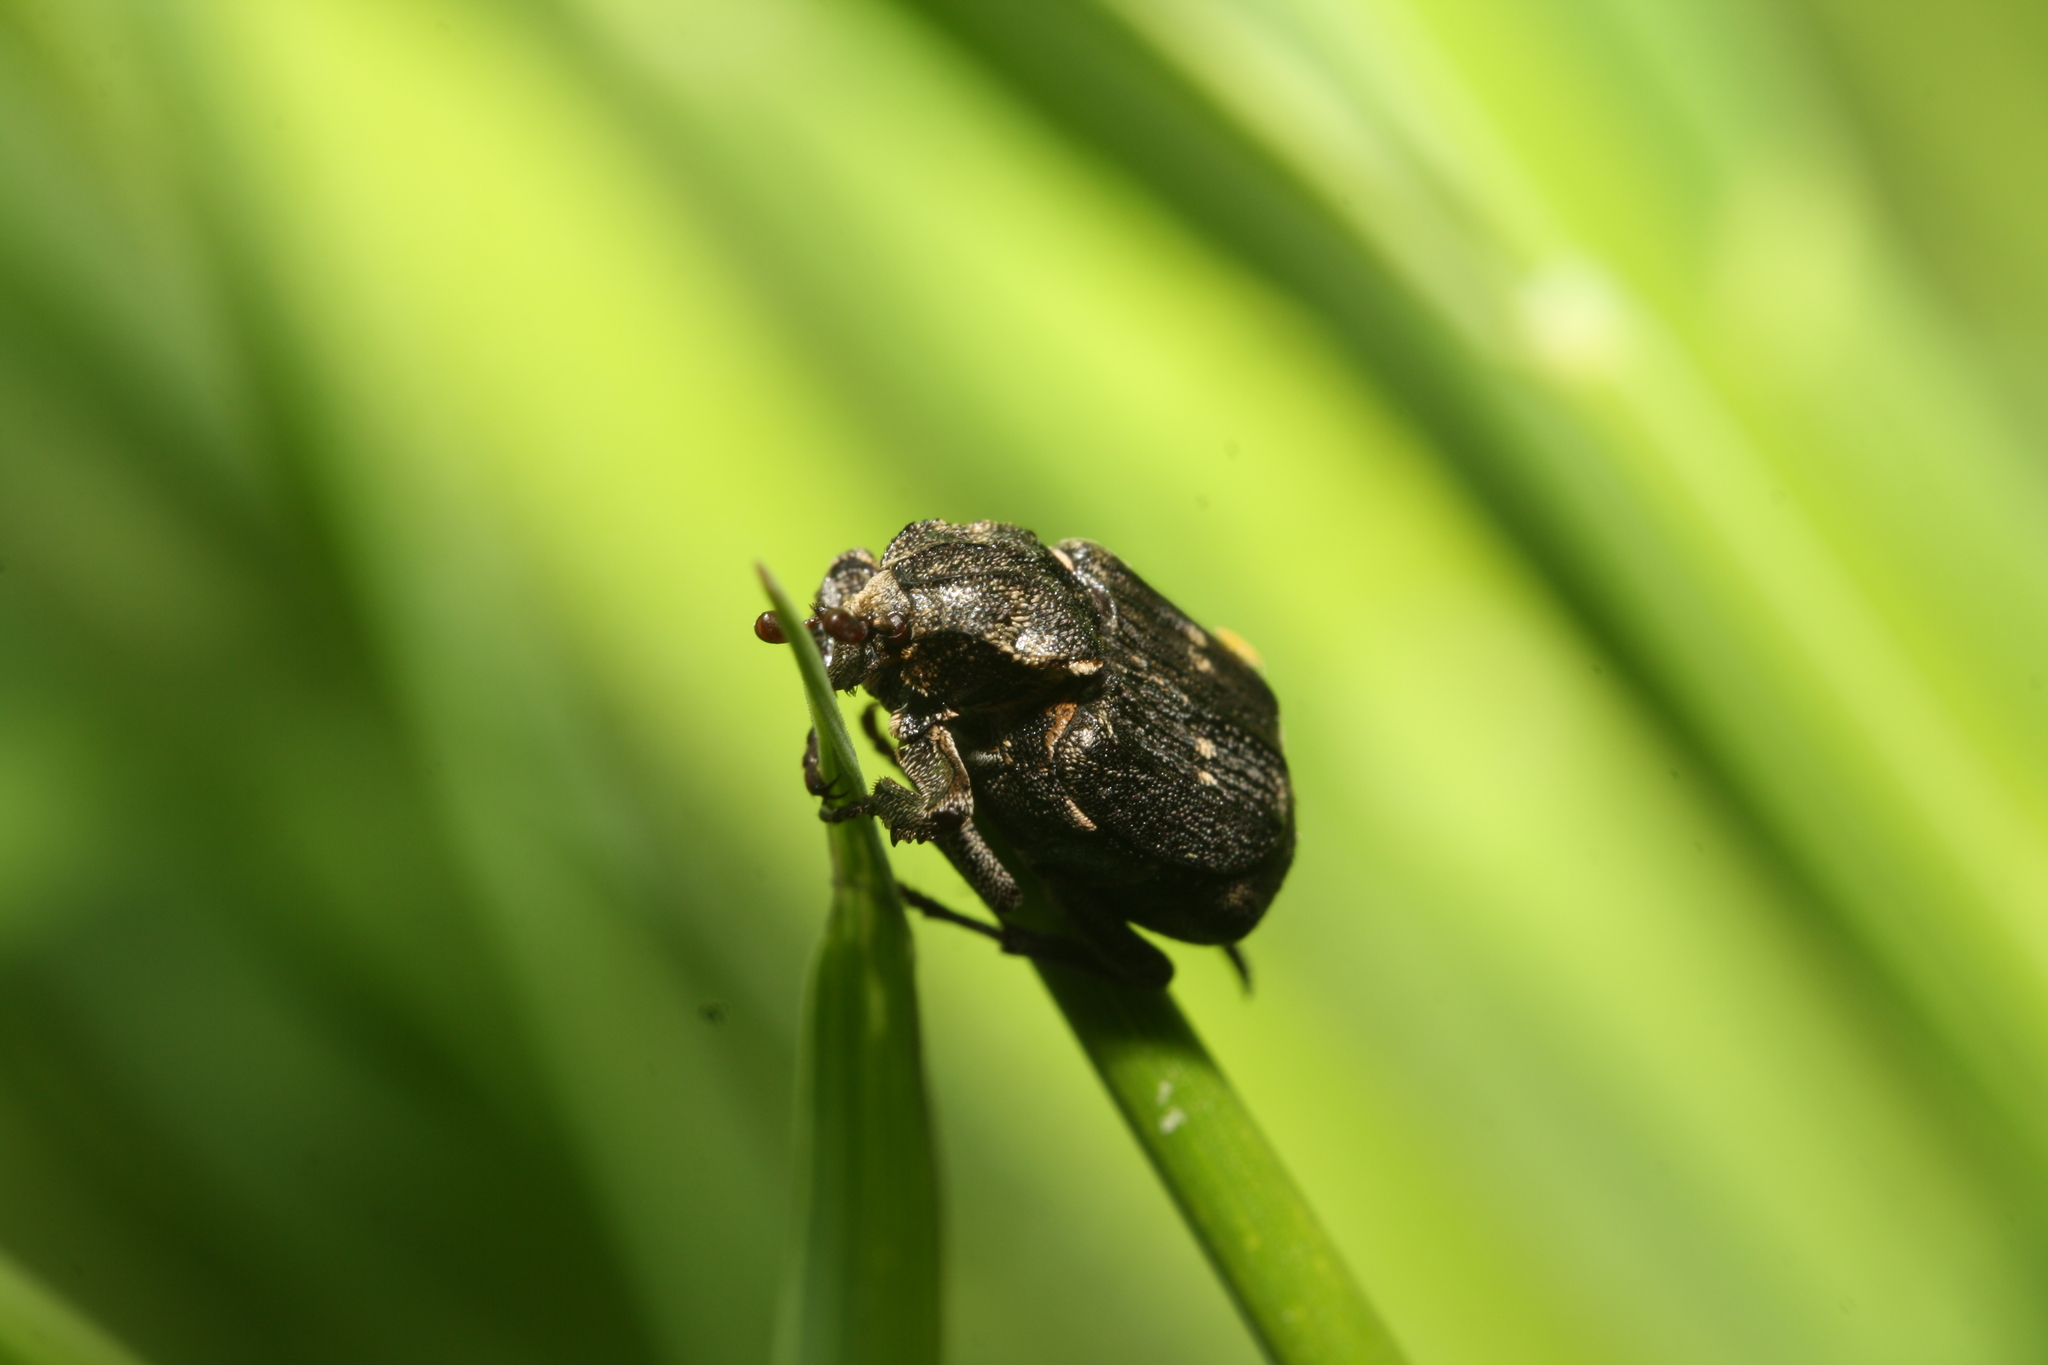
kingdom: Animalia
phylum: Arthropoda
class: Insecta
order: Coleoptera
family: Scarabaeidae
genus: Valgus
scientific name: Valgus hemipterus
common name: Bug flower chafer
